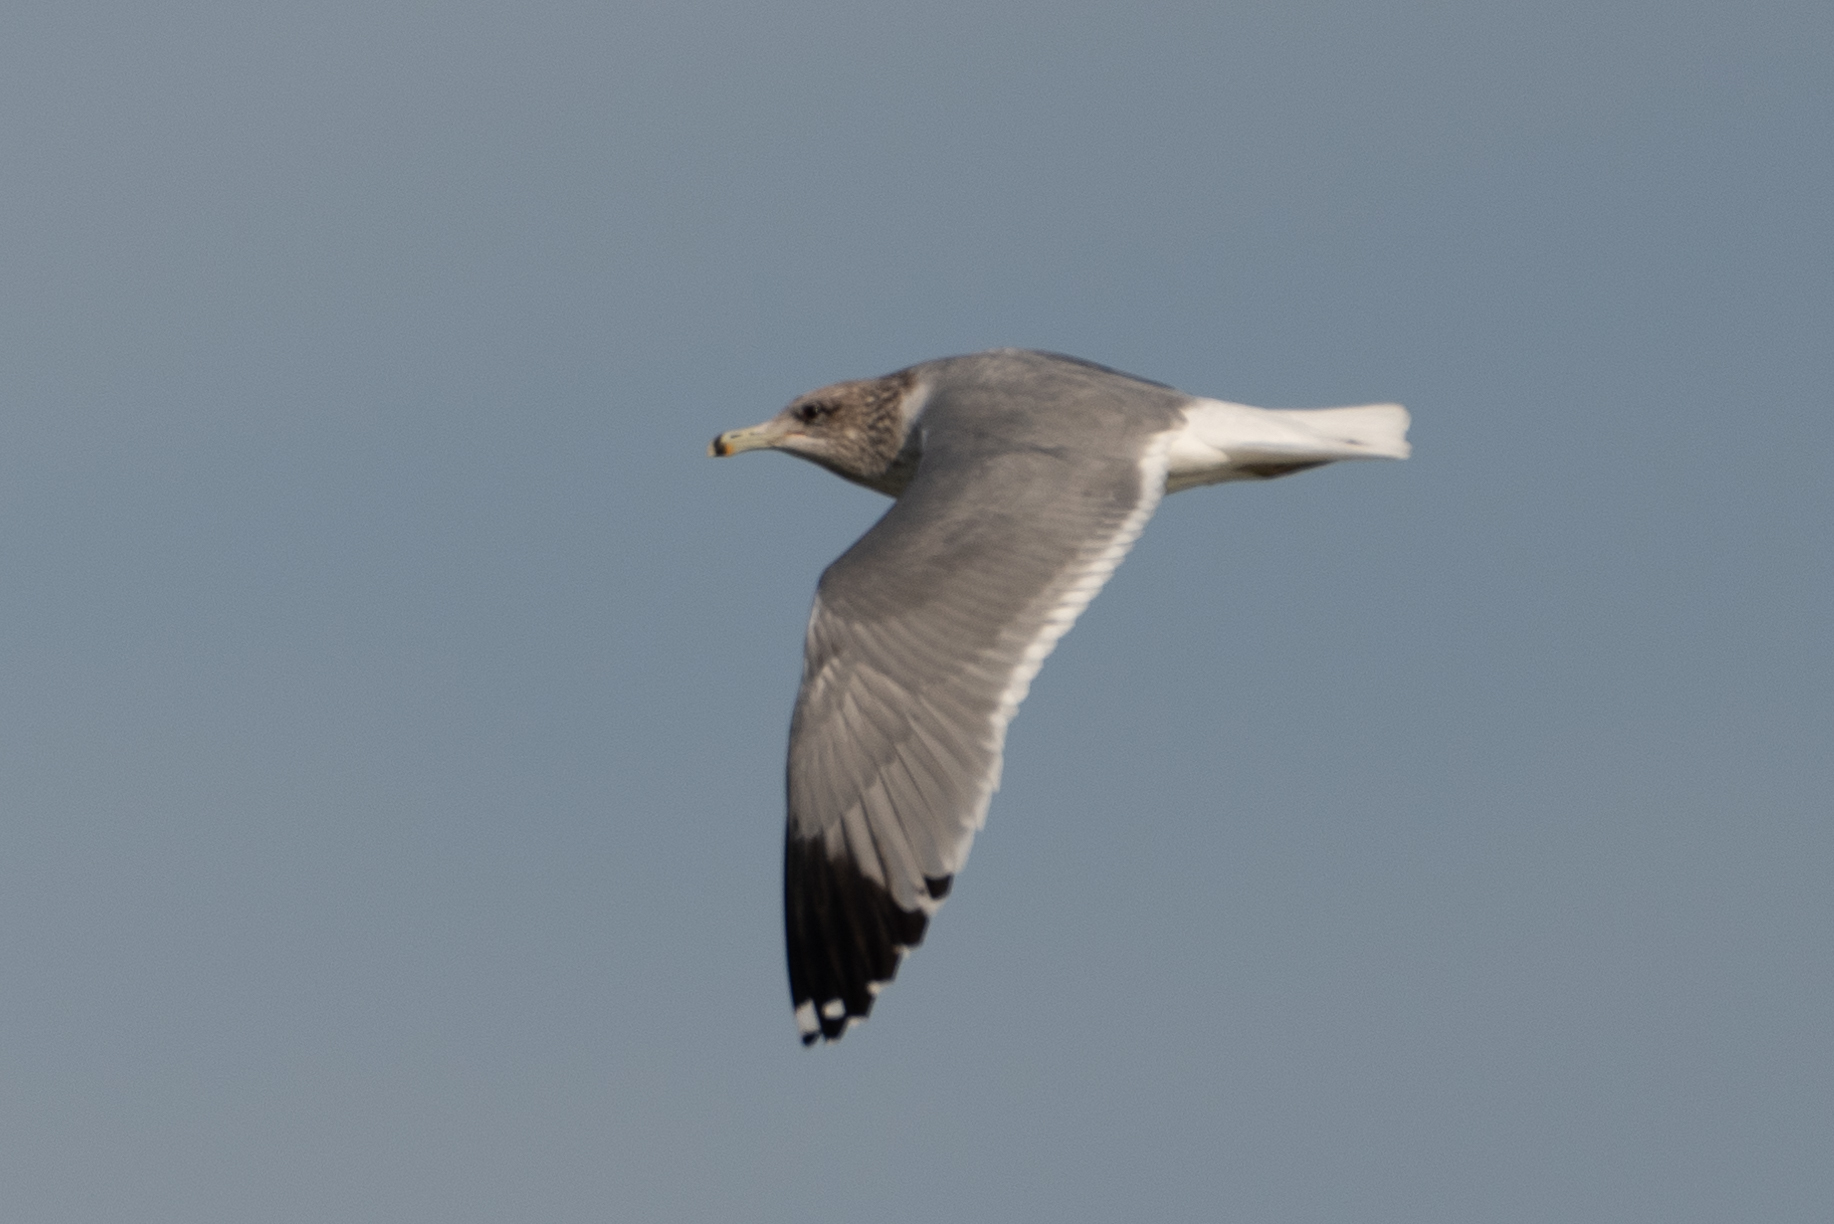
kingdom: Animalia
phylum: Chordata
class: Aves
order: Charadriiformes
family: Laridae
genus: Larus
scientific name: Larus californicus
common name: California gull
